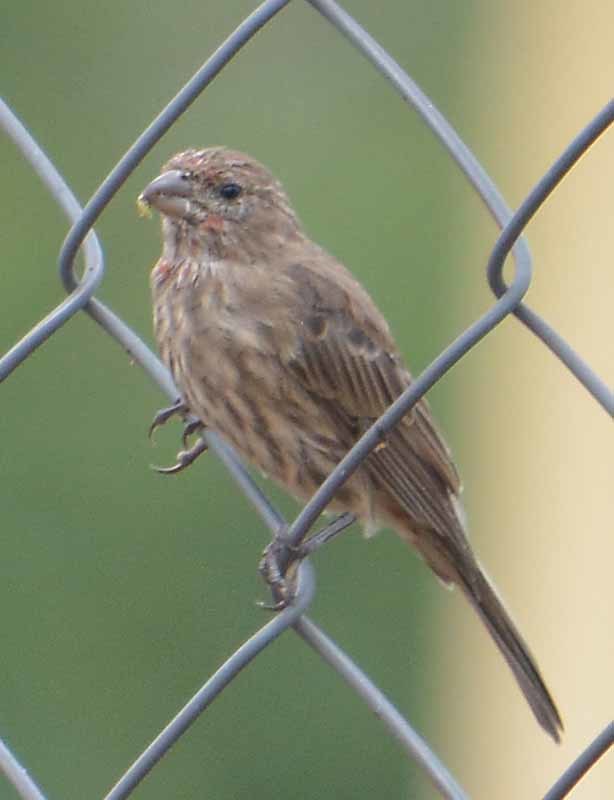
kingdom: Animalia
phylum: Chordata
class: Aves
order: Passeriformes
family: Fringillidae
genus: Haemorhous
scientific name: Haemorhous mexicanus
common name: House finch
